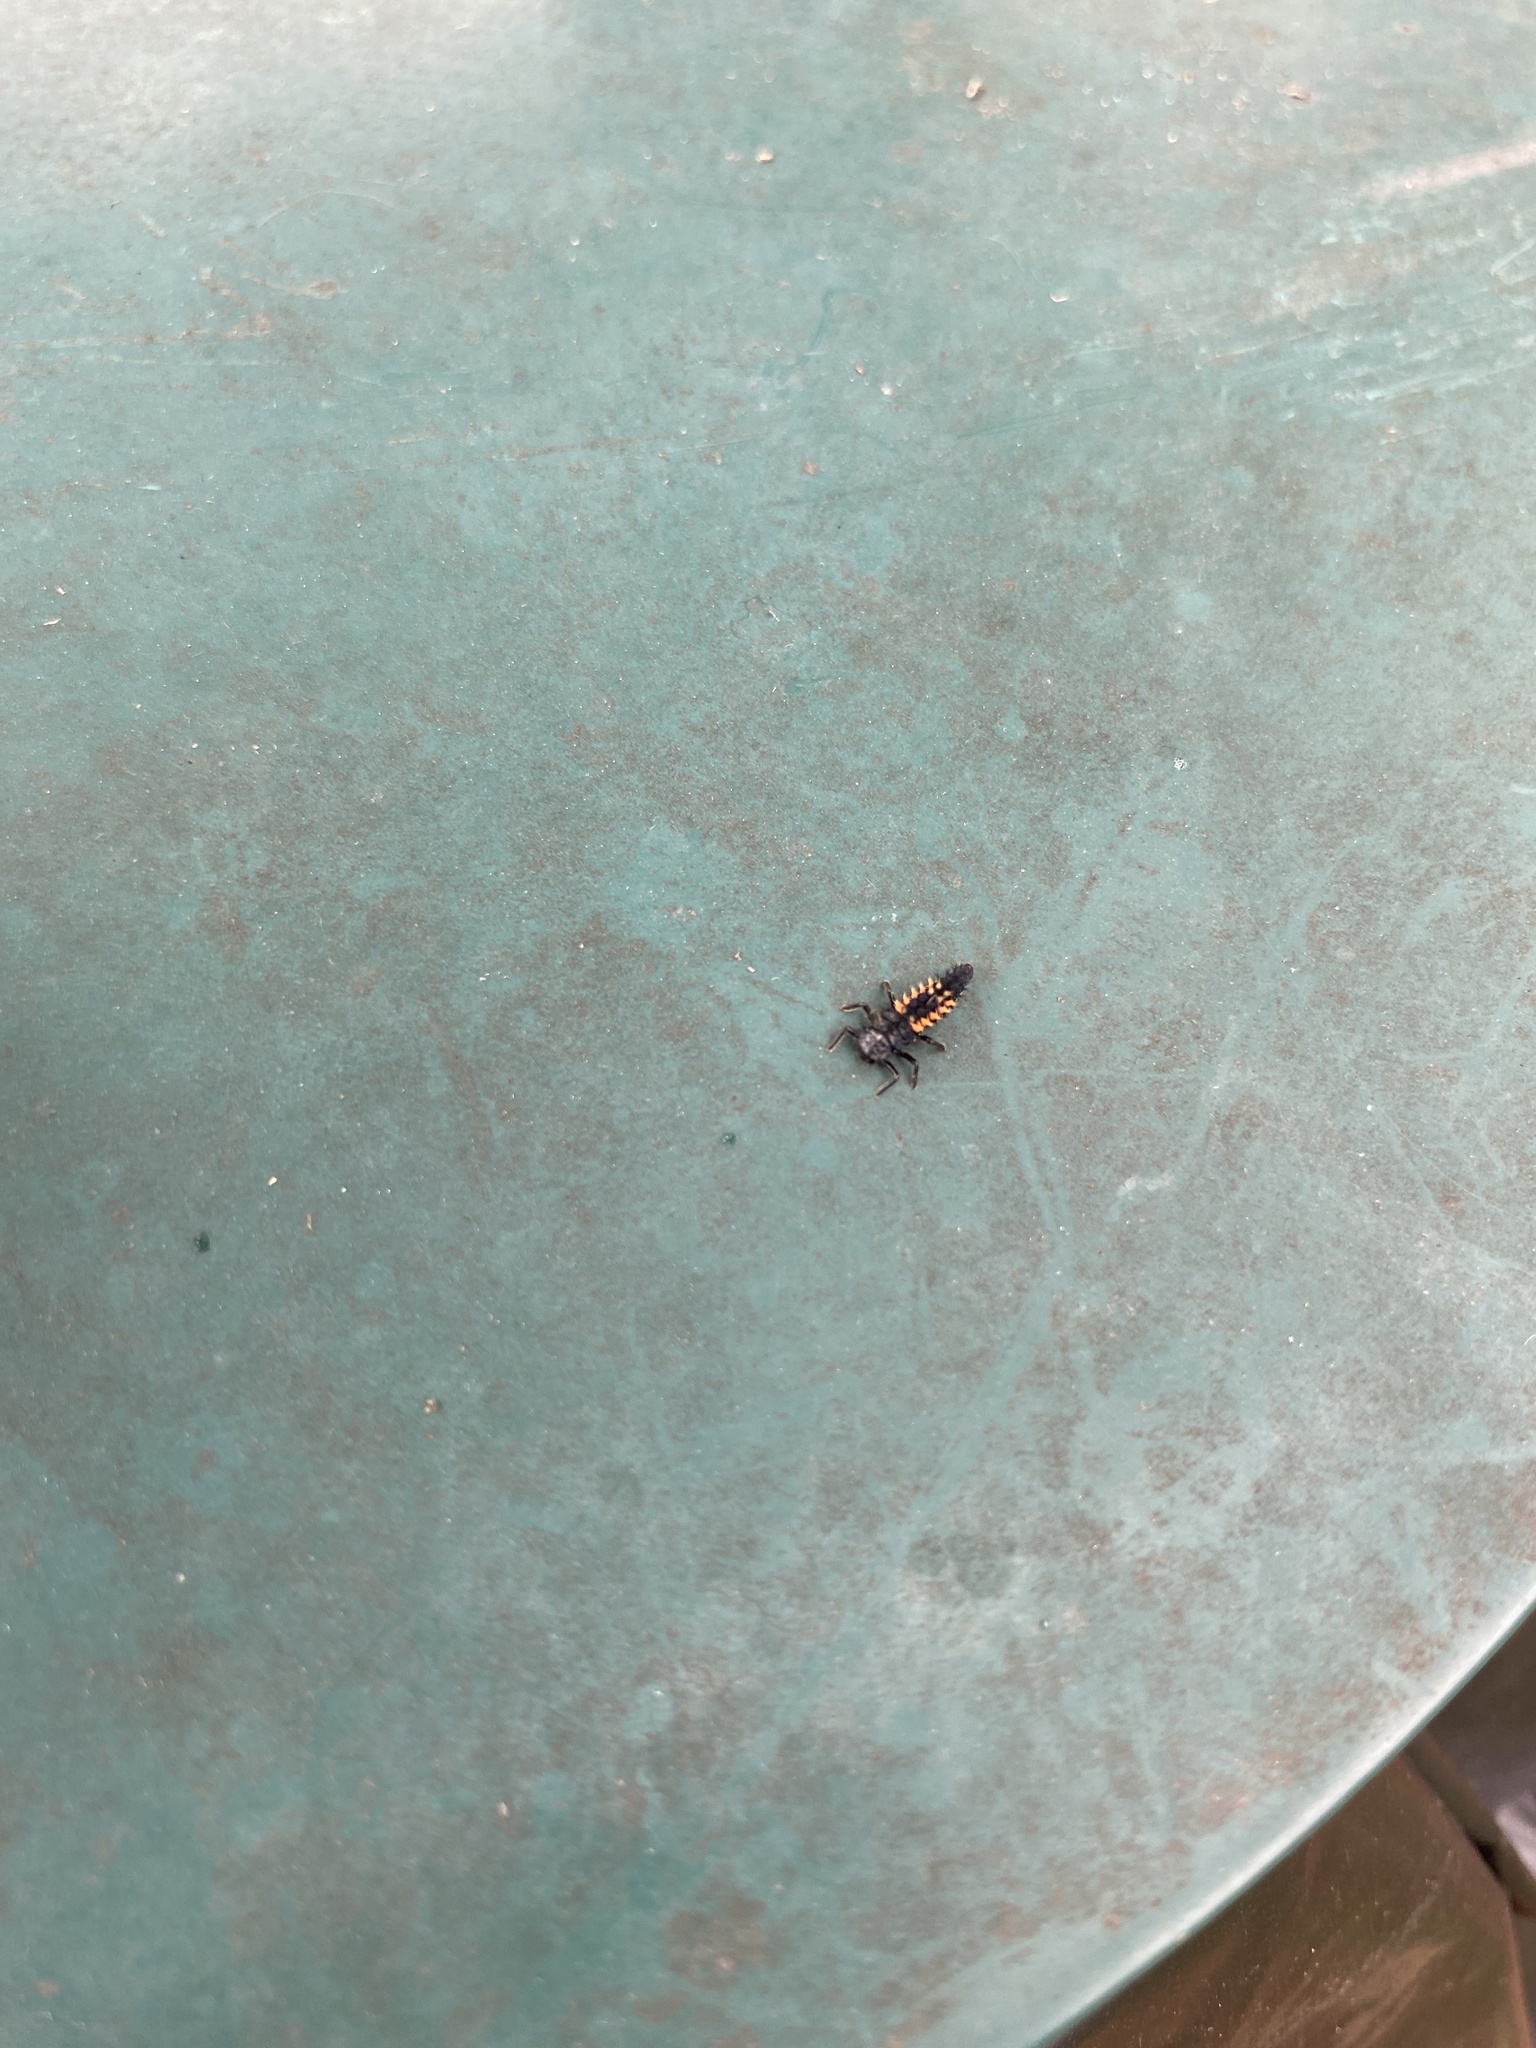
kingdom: Animalia
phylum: Arthropoda
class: Insecta
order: Coleoptera
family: Coccinellidae
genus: Harmonia
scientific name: Harmonia axyridis
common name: Harlequin ladybird
